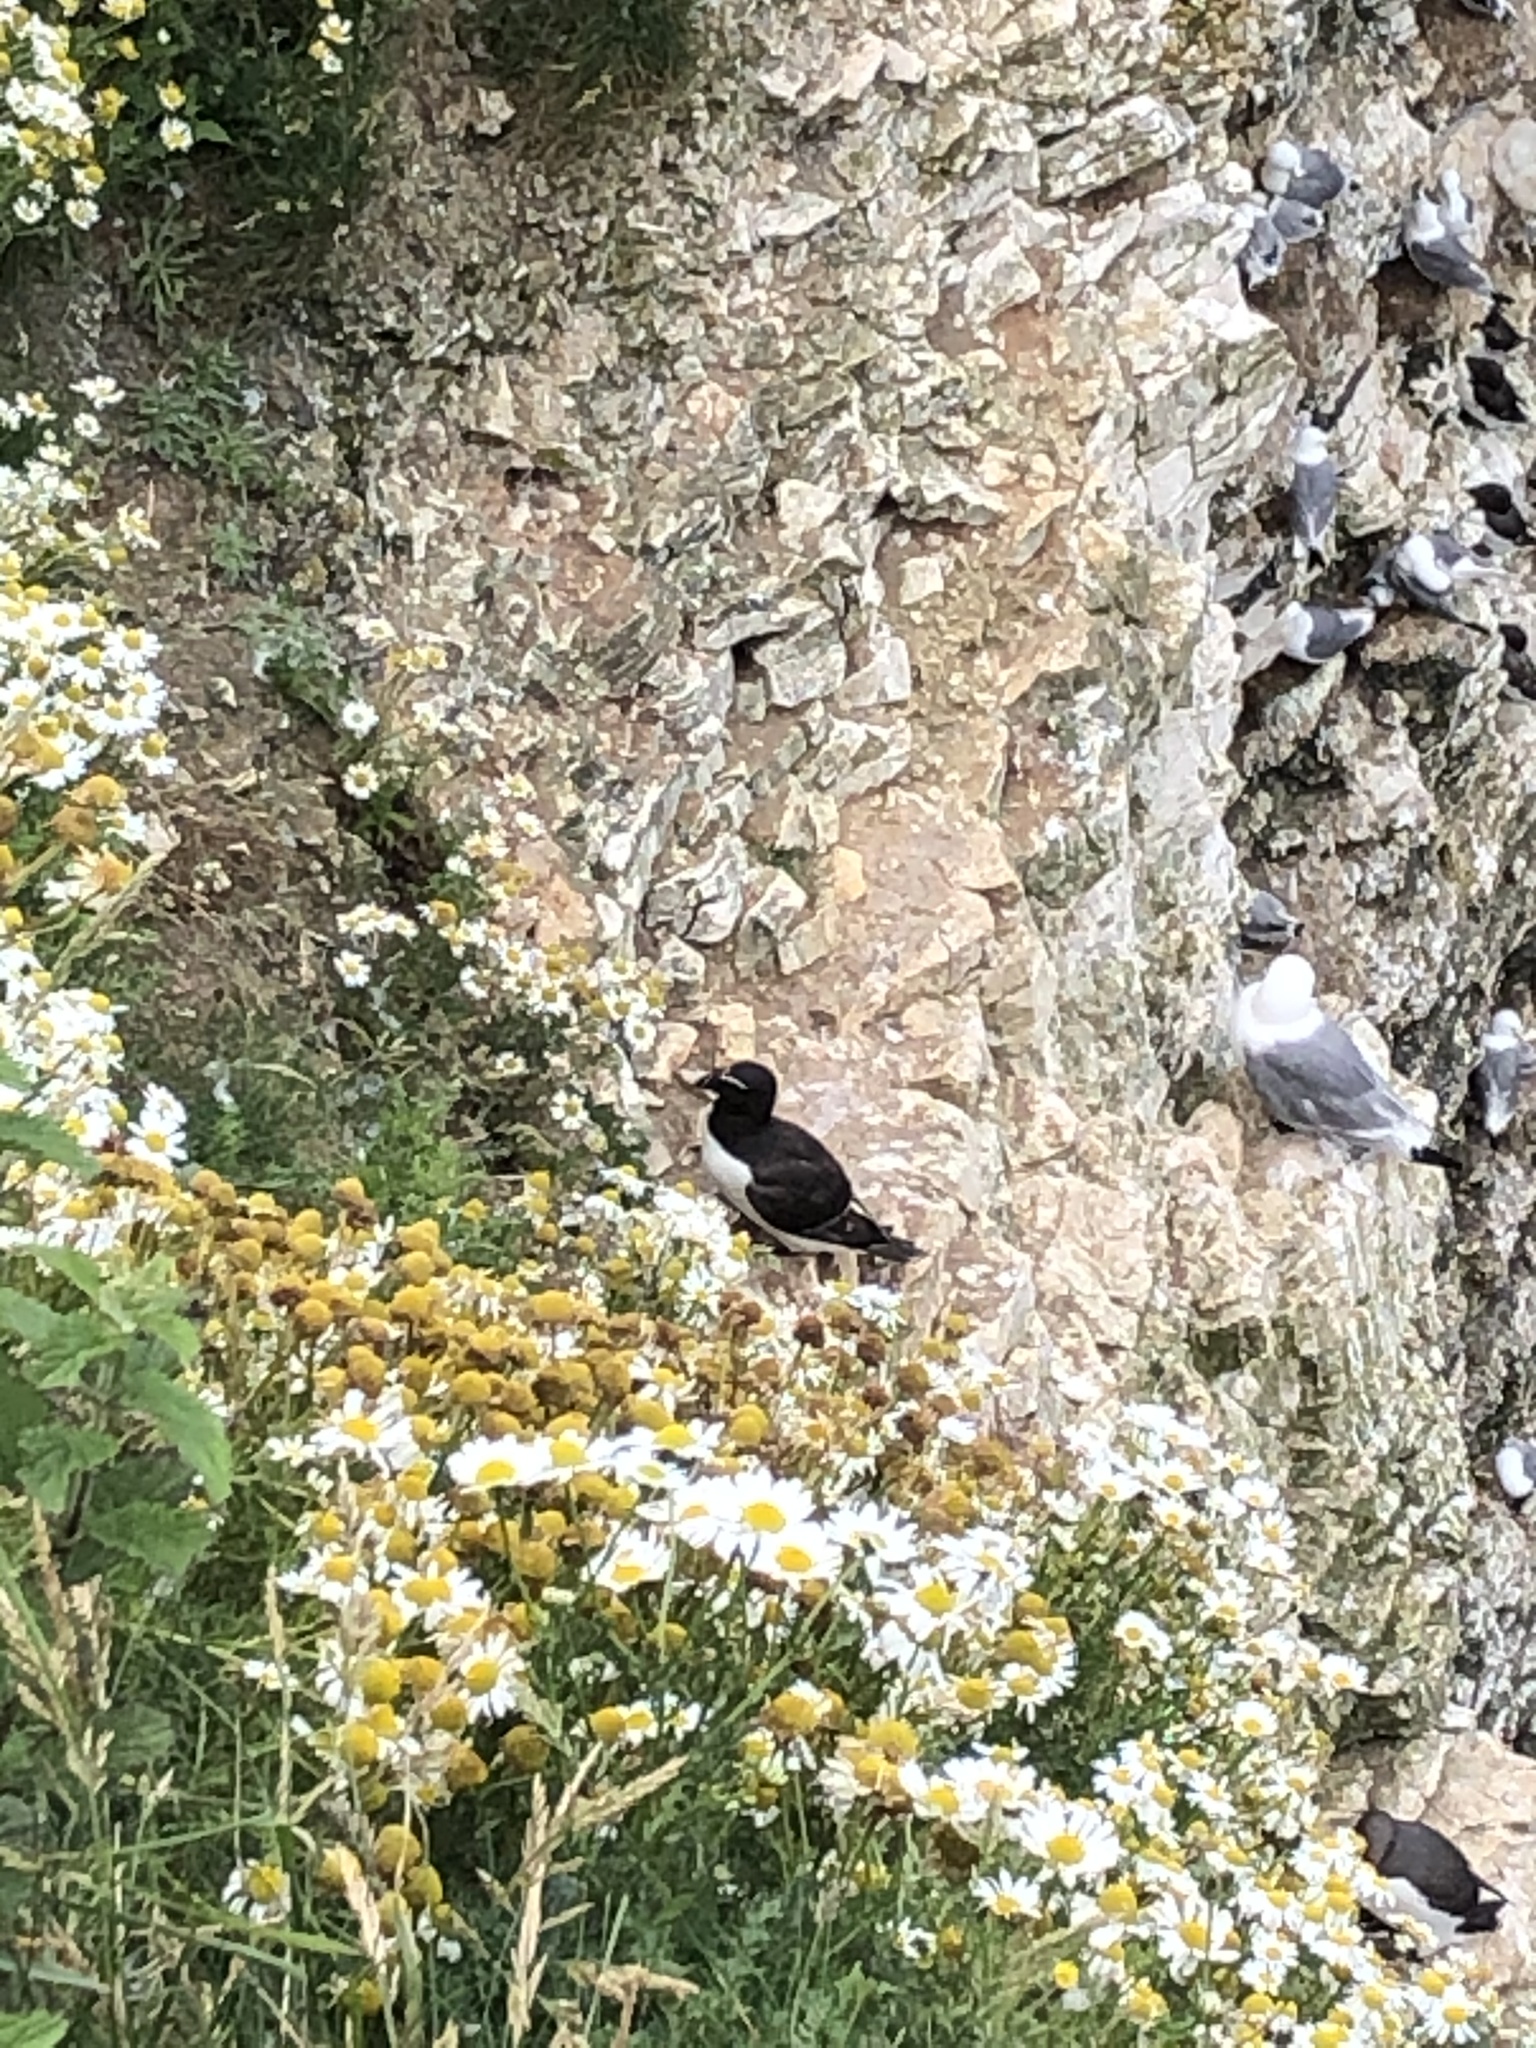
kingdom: Animalia
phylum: Chordata
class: Aves
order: Charadriiformes
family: Alcidae
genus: Alca
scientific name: Alca torda
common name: Razorbill
